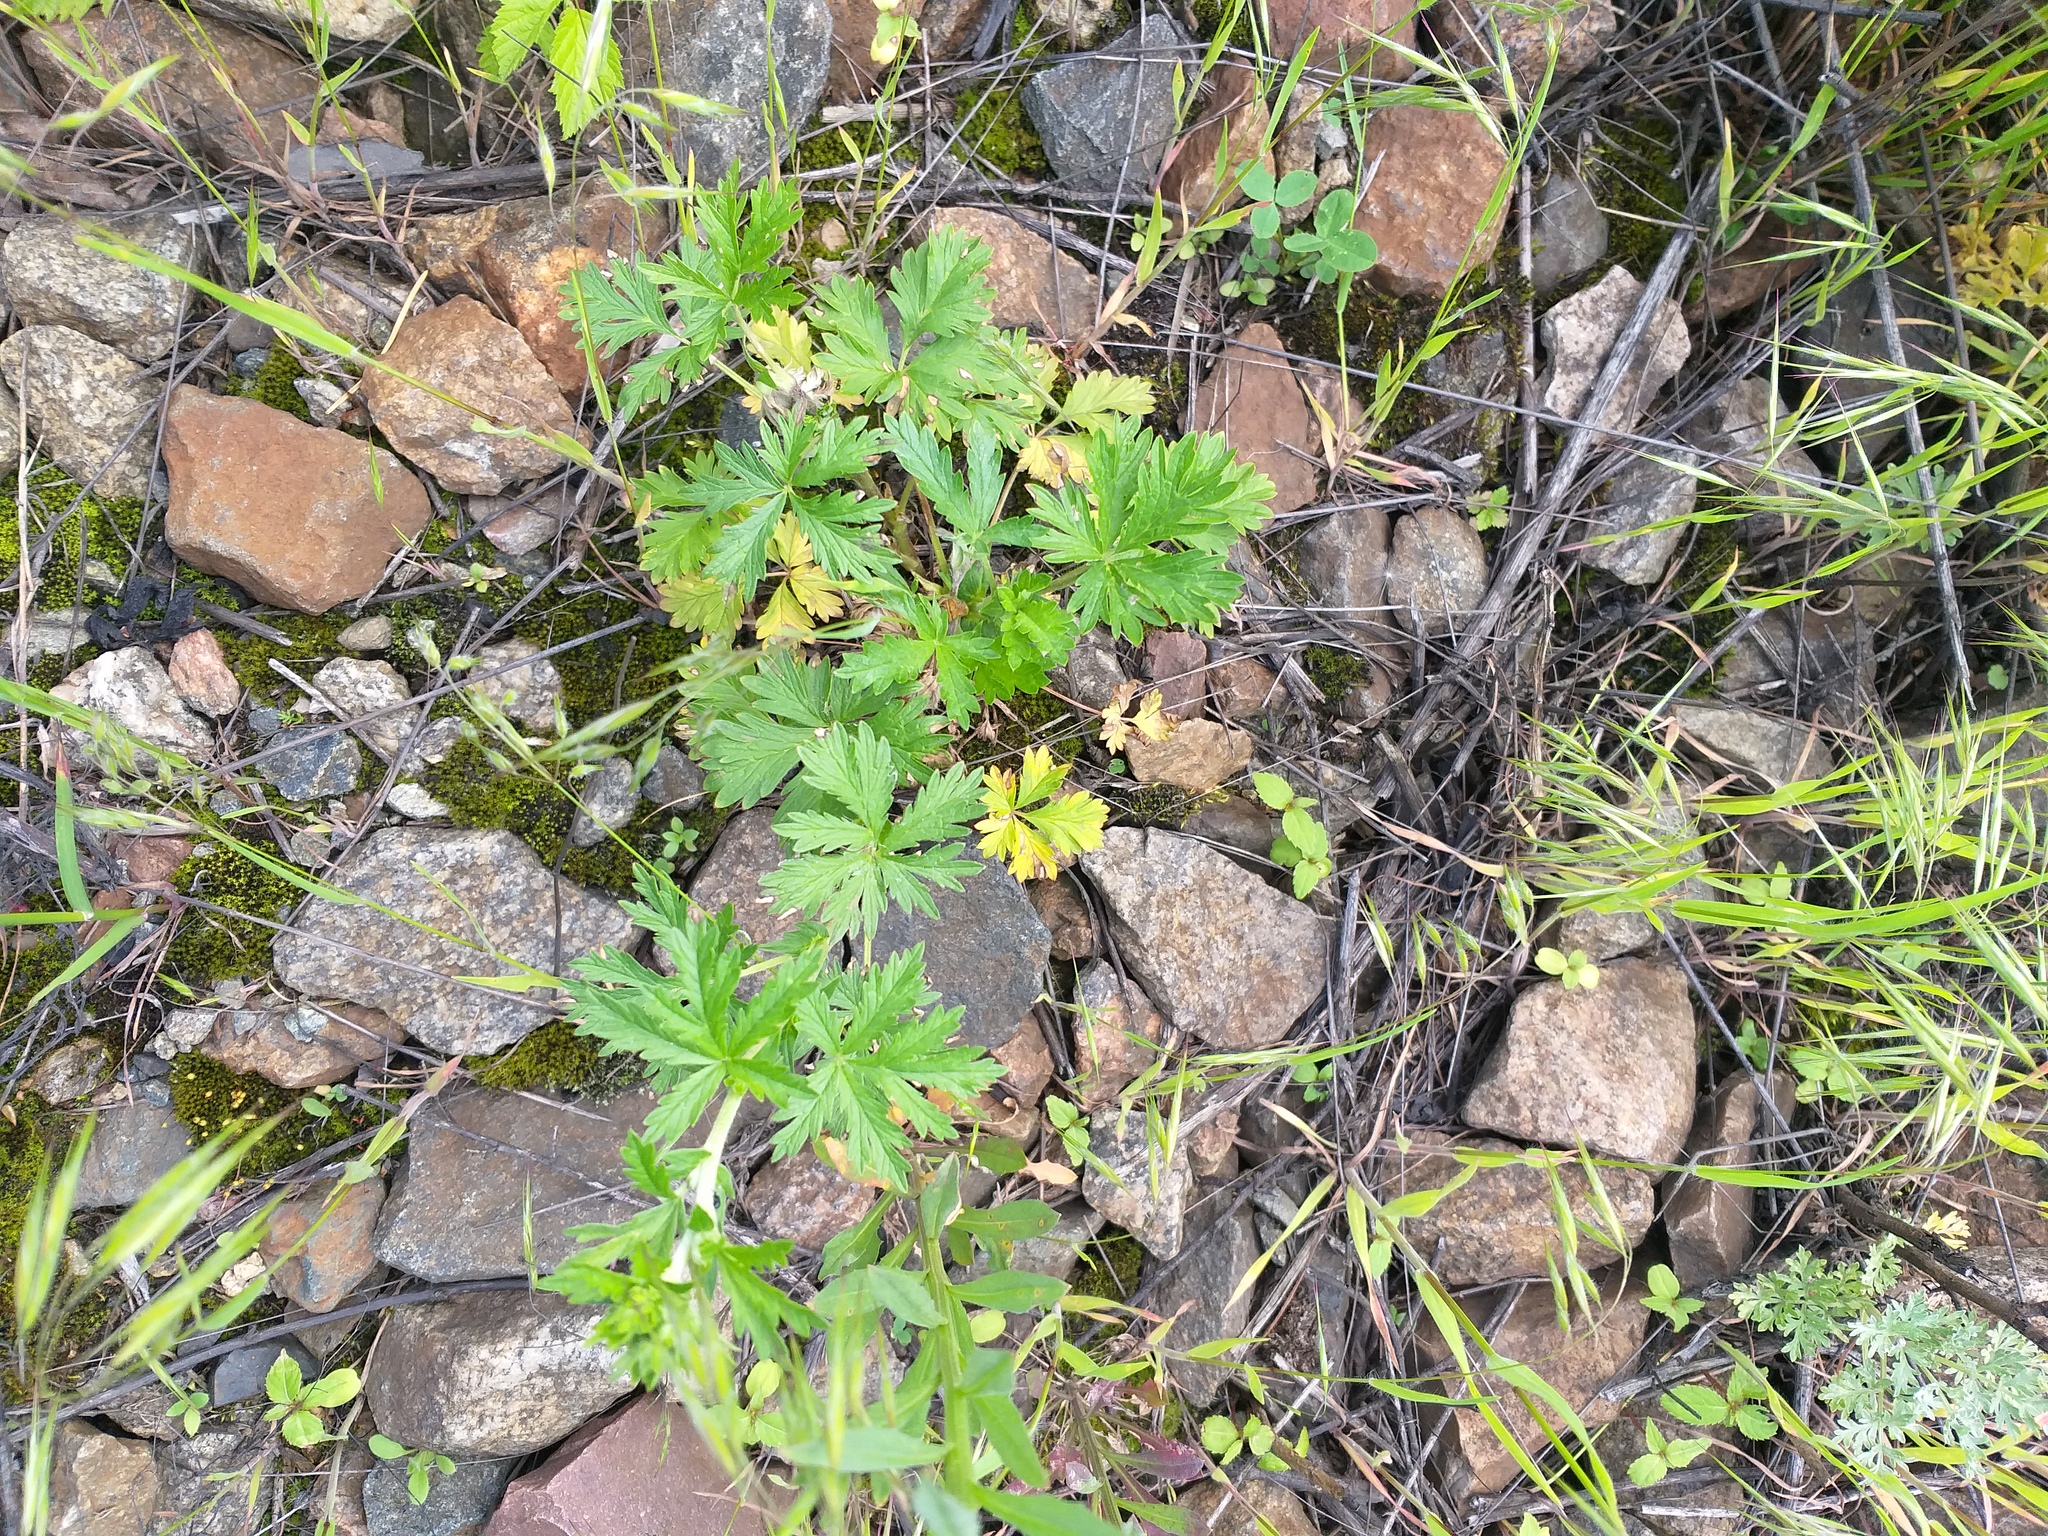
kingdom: Plantae
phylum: Tracheophyta
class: Magnoliopsida
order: Rosales
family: Rosaceae
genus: Potentilla
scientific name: Potentilla intermedia
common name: Downy cinquefoil
